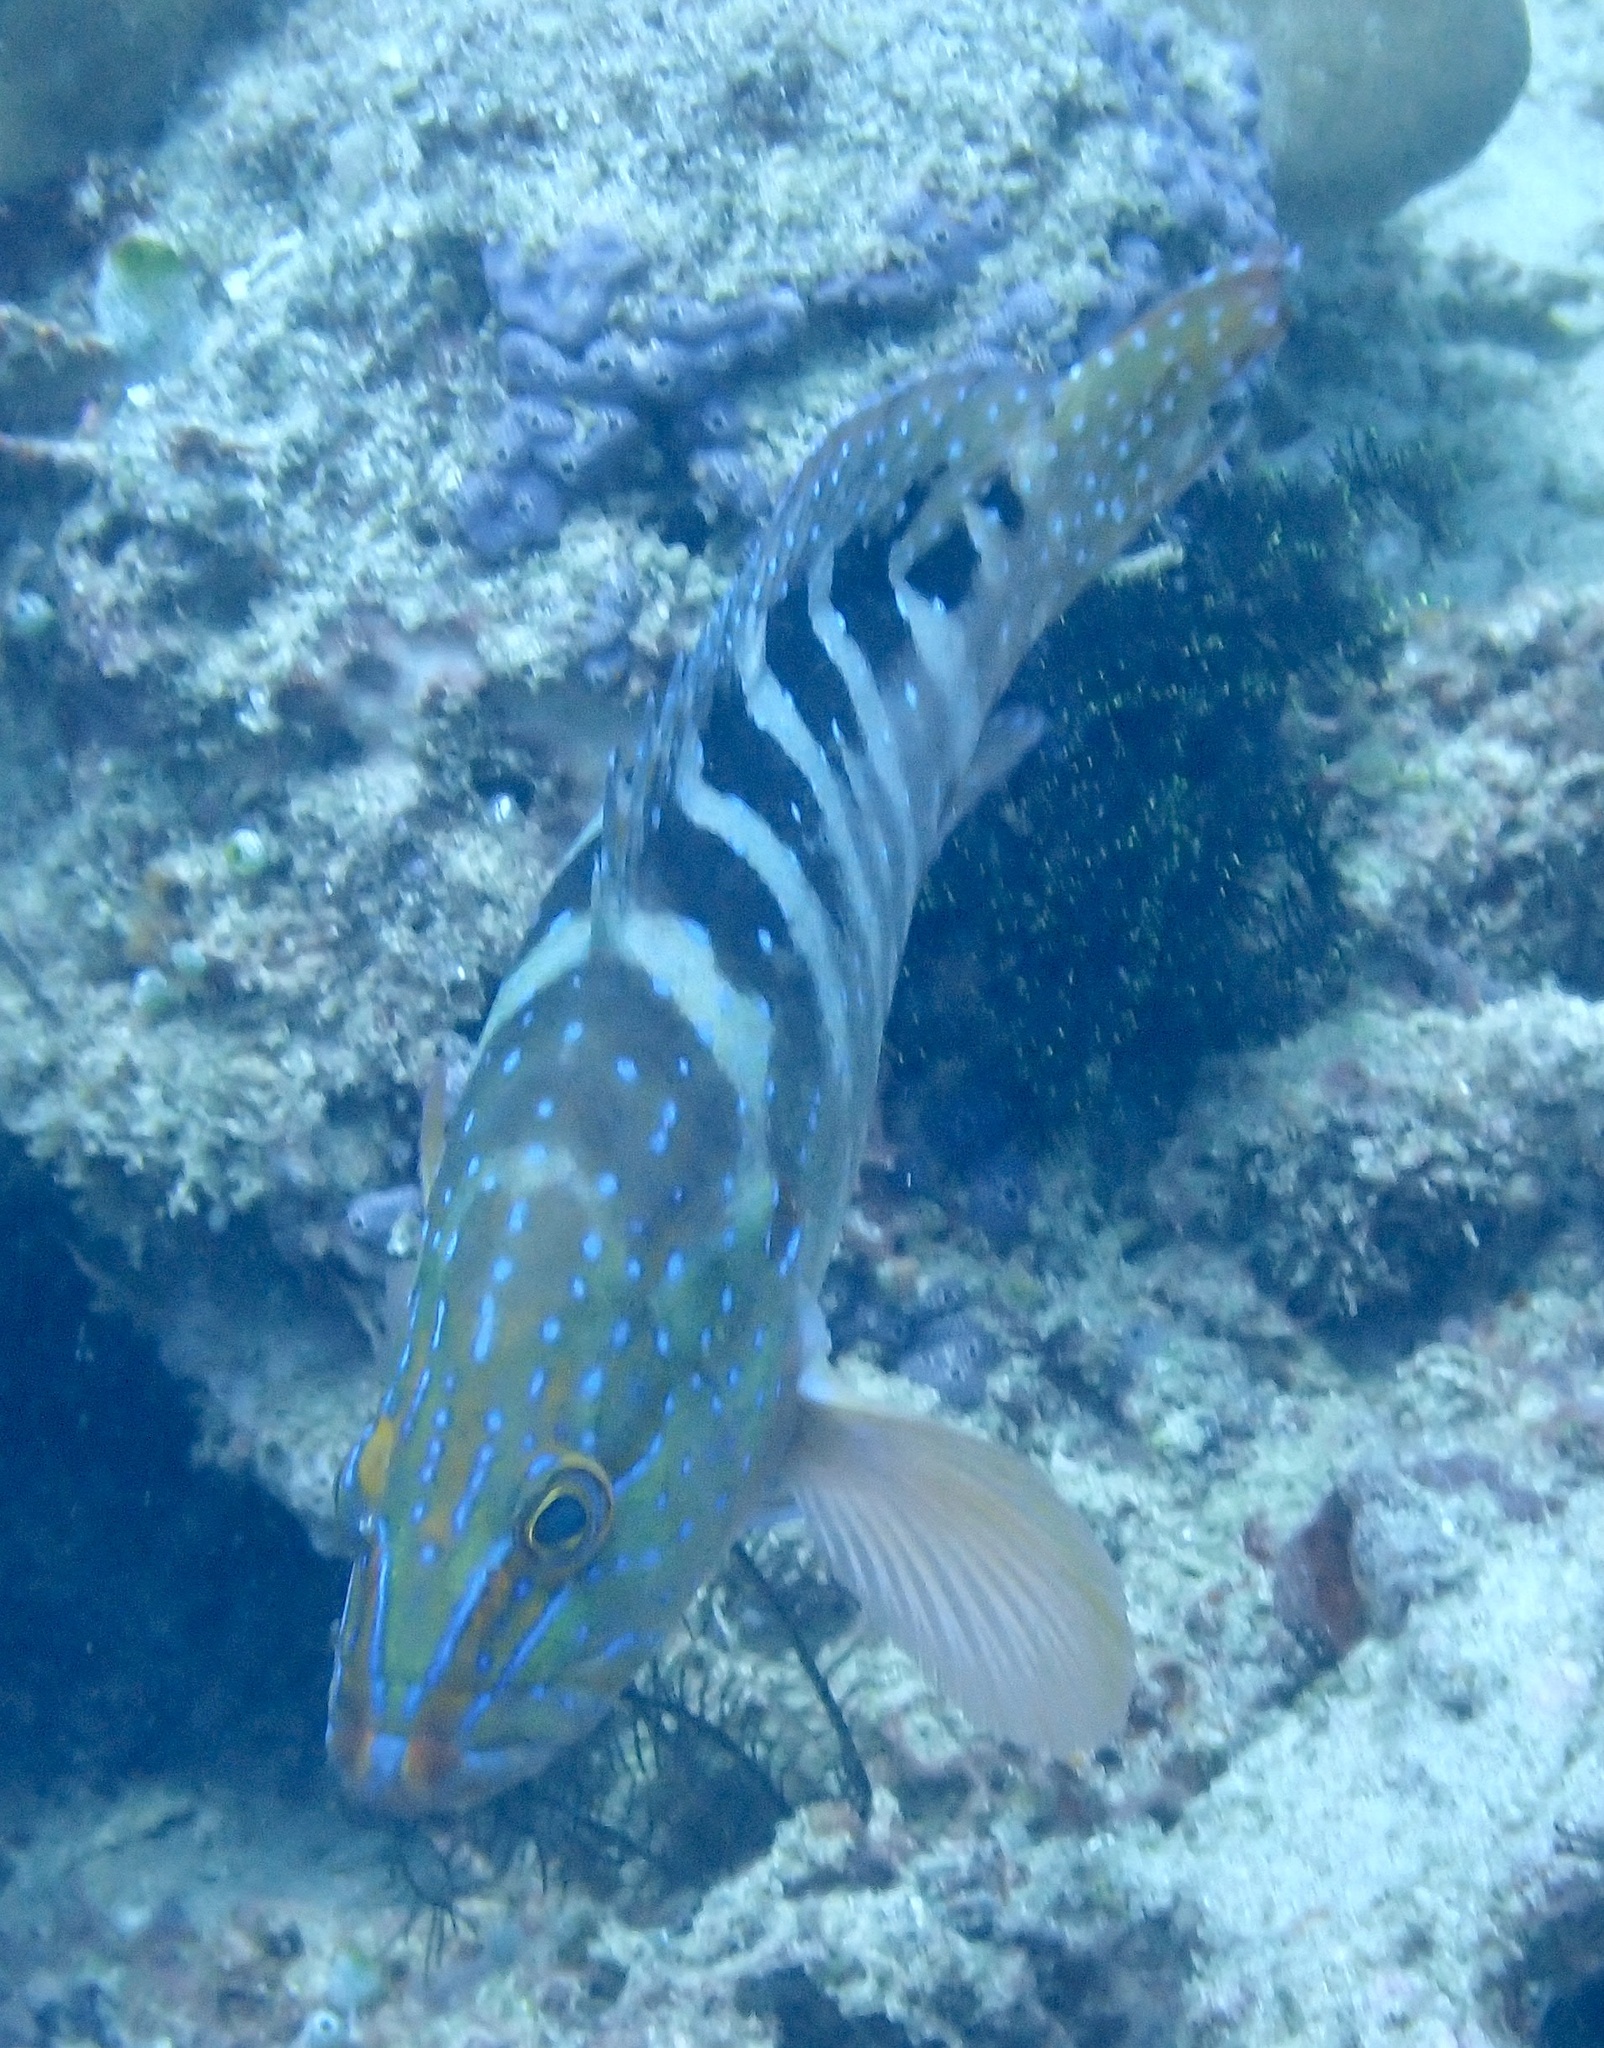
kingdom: Animalia
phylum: Chordata
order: Perciformes
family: Serranidae
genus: Cephalopholis
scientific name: Cephalopholis sexmaculata
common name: Sixblotch hind
